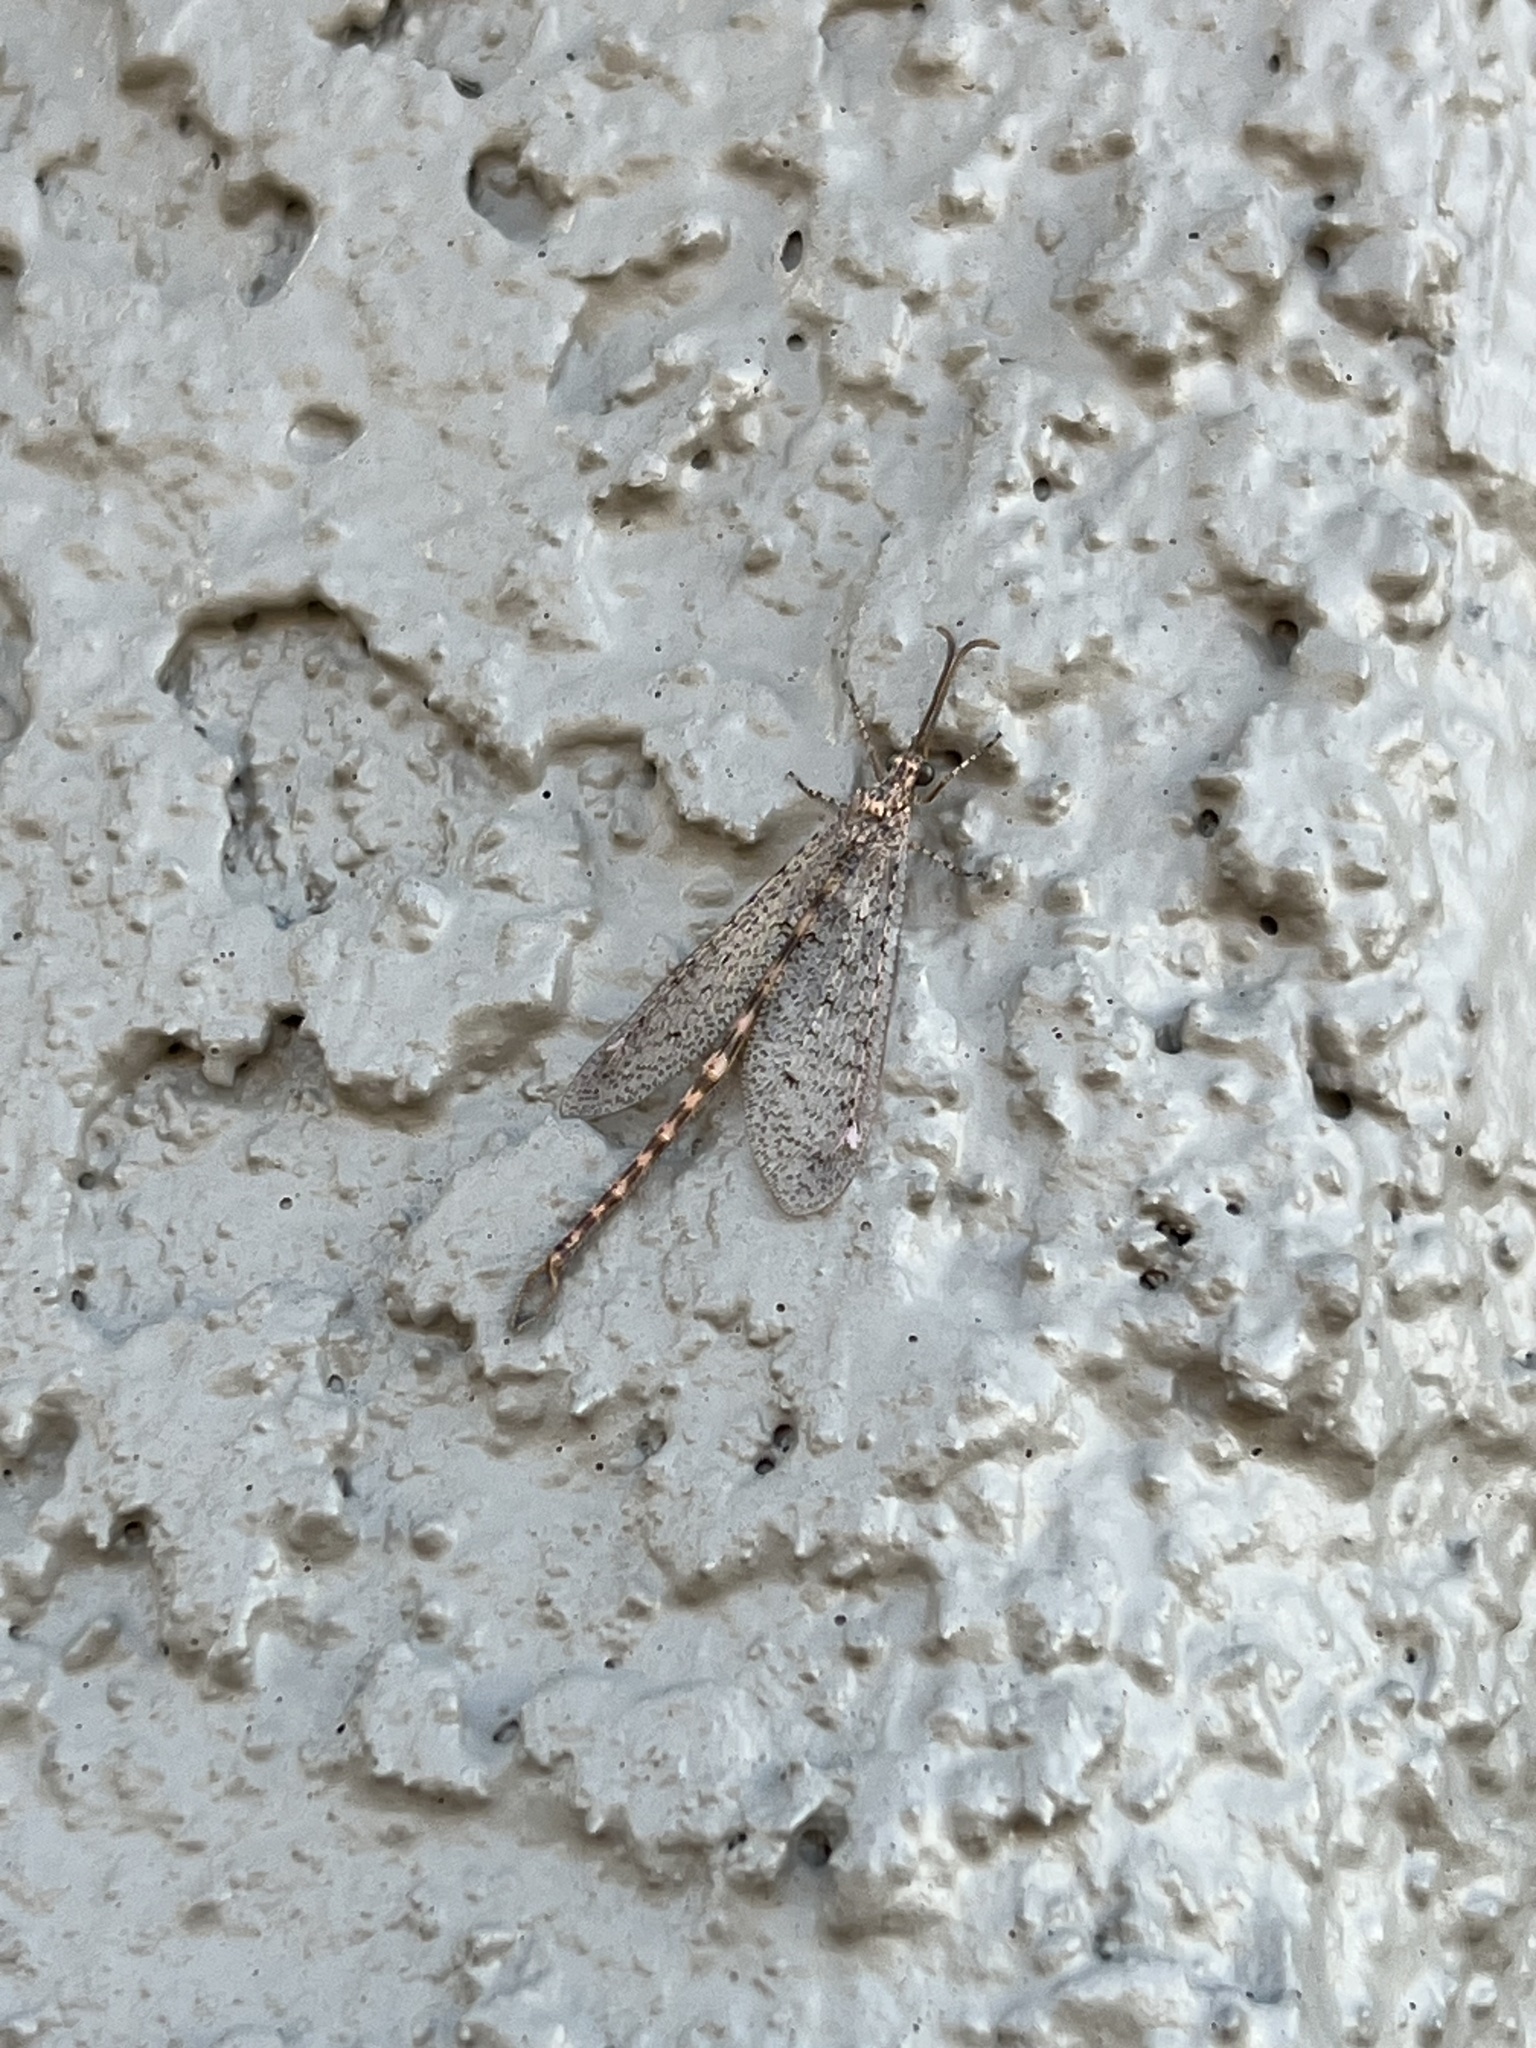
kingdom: Animalia
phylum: Arthropoda
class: Insecta
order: Neuroptera
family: Myrmeleontidae
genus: Brachynemurus
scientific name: Brachynemurus sackeni
